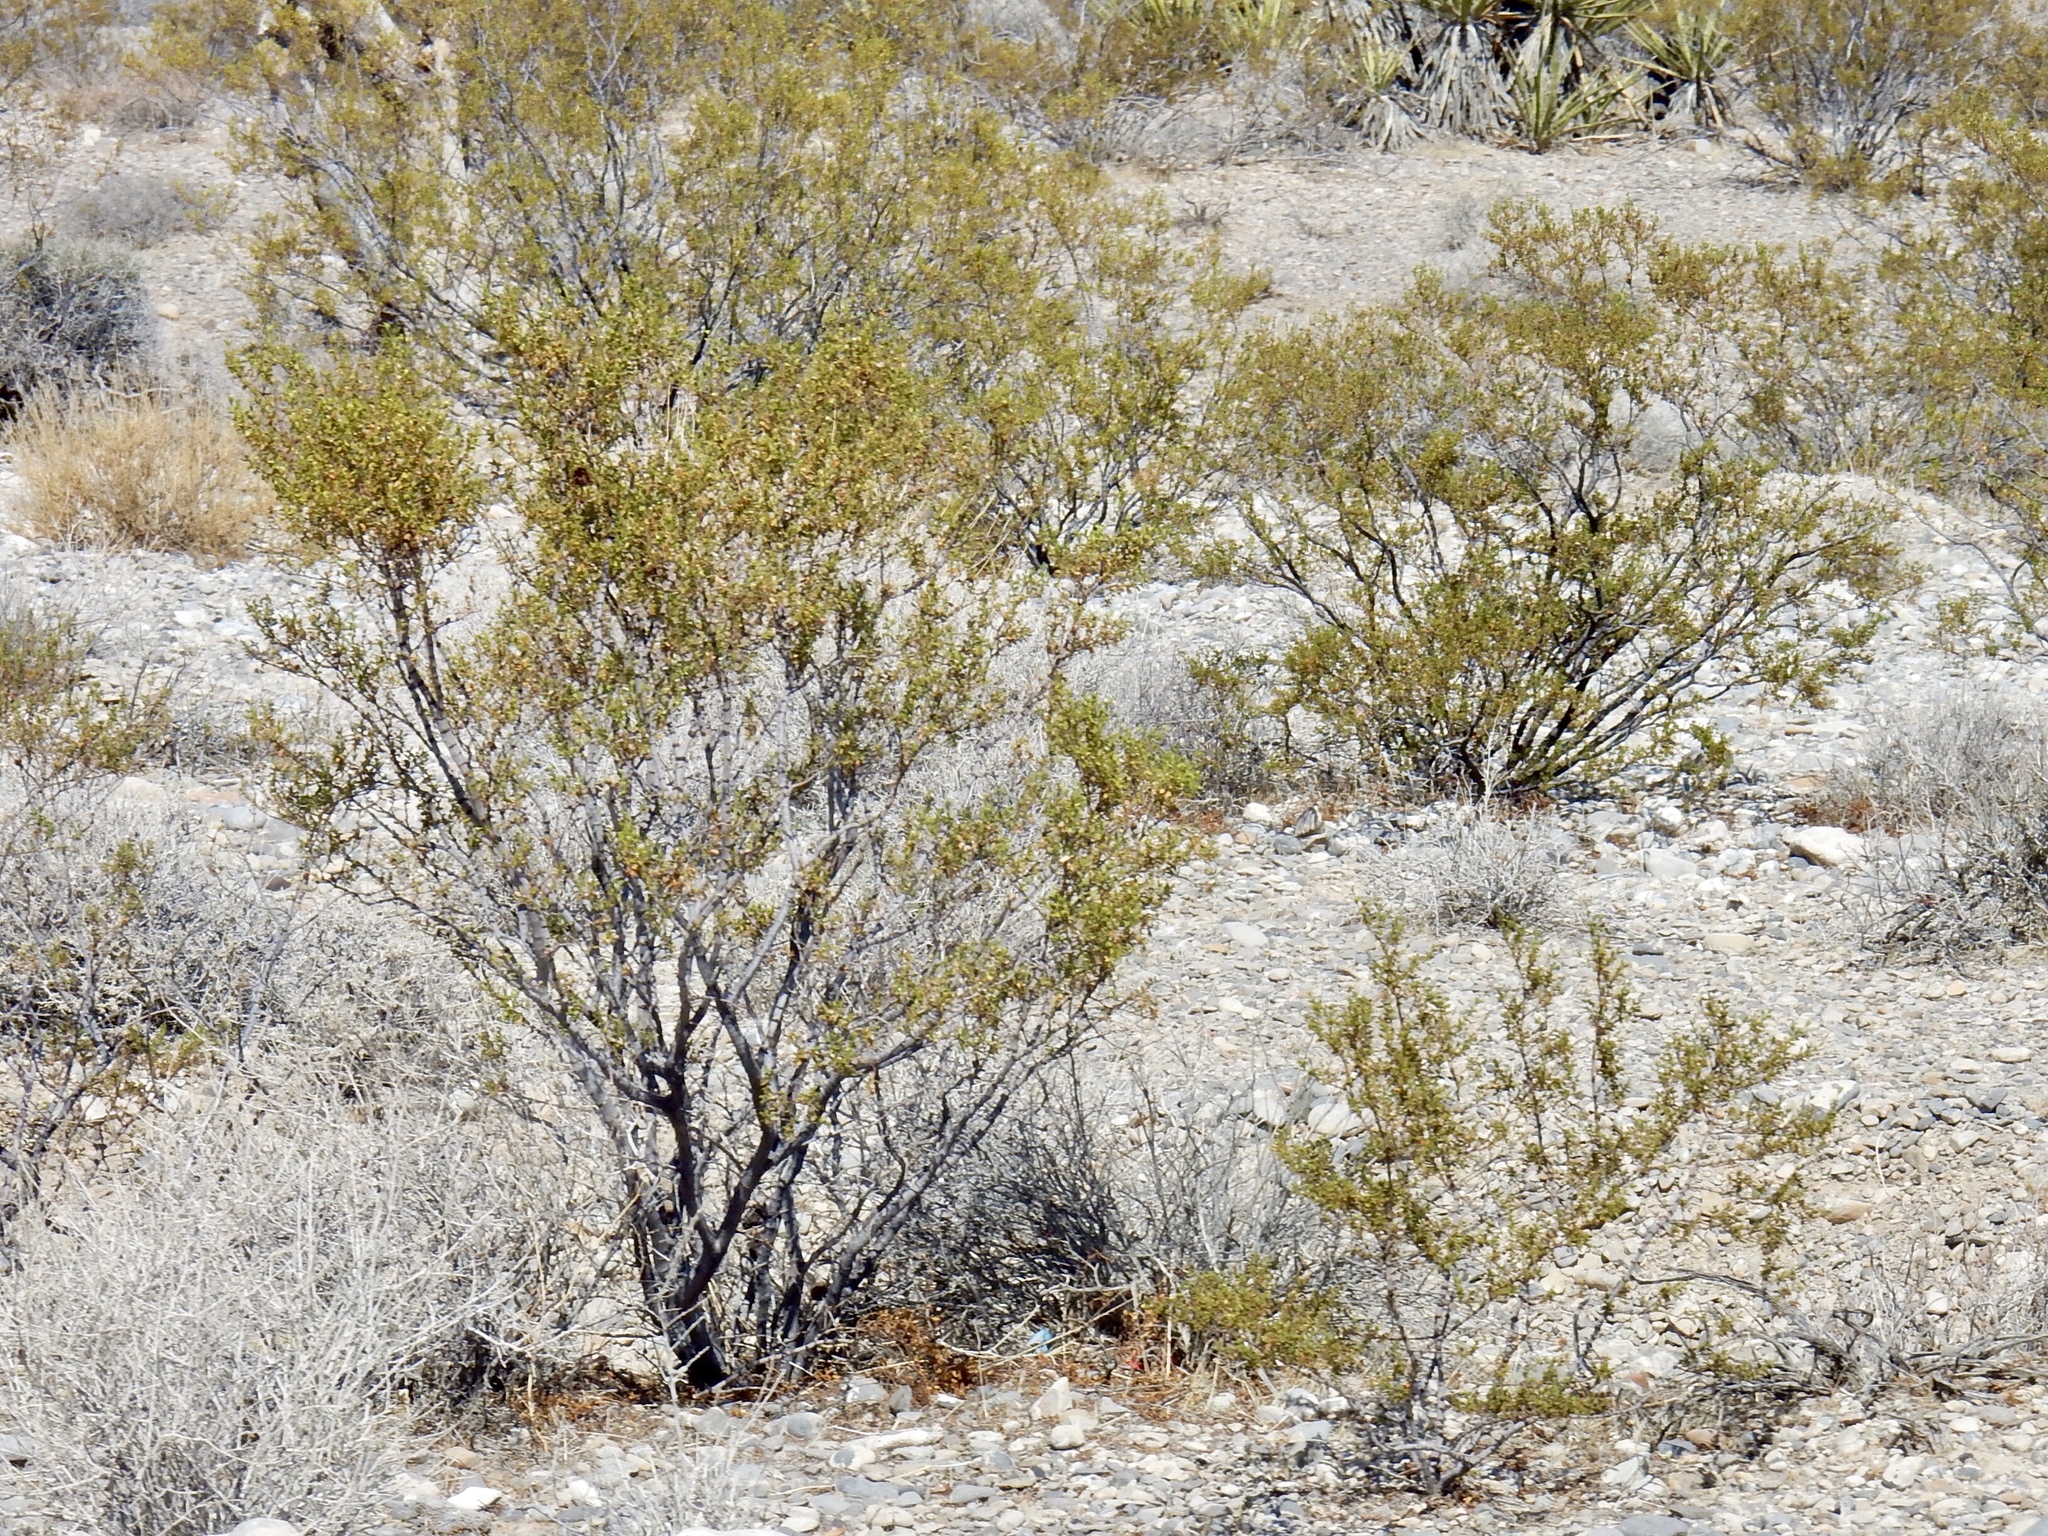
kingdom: Plantae
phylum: Tracheophyta
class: Magnoliopsida
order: Zygophyllales
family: Zygophyllaceae
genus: Larrea
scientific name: Larrea tridentata
